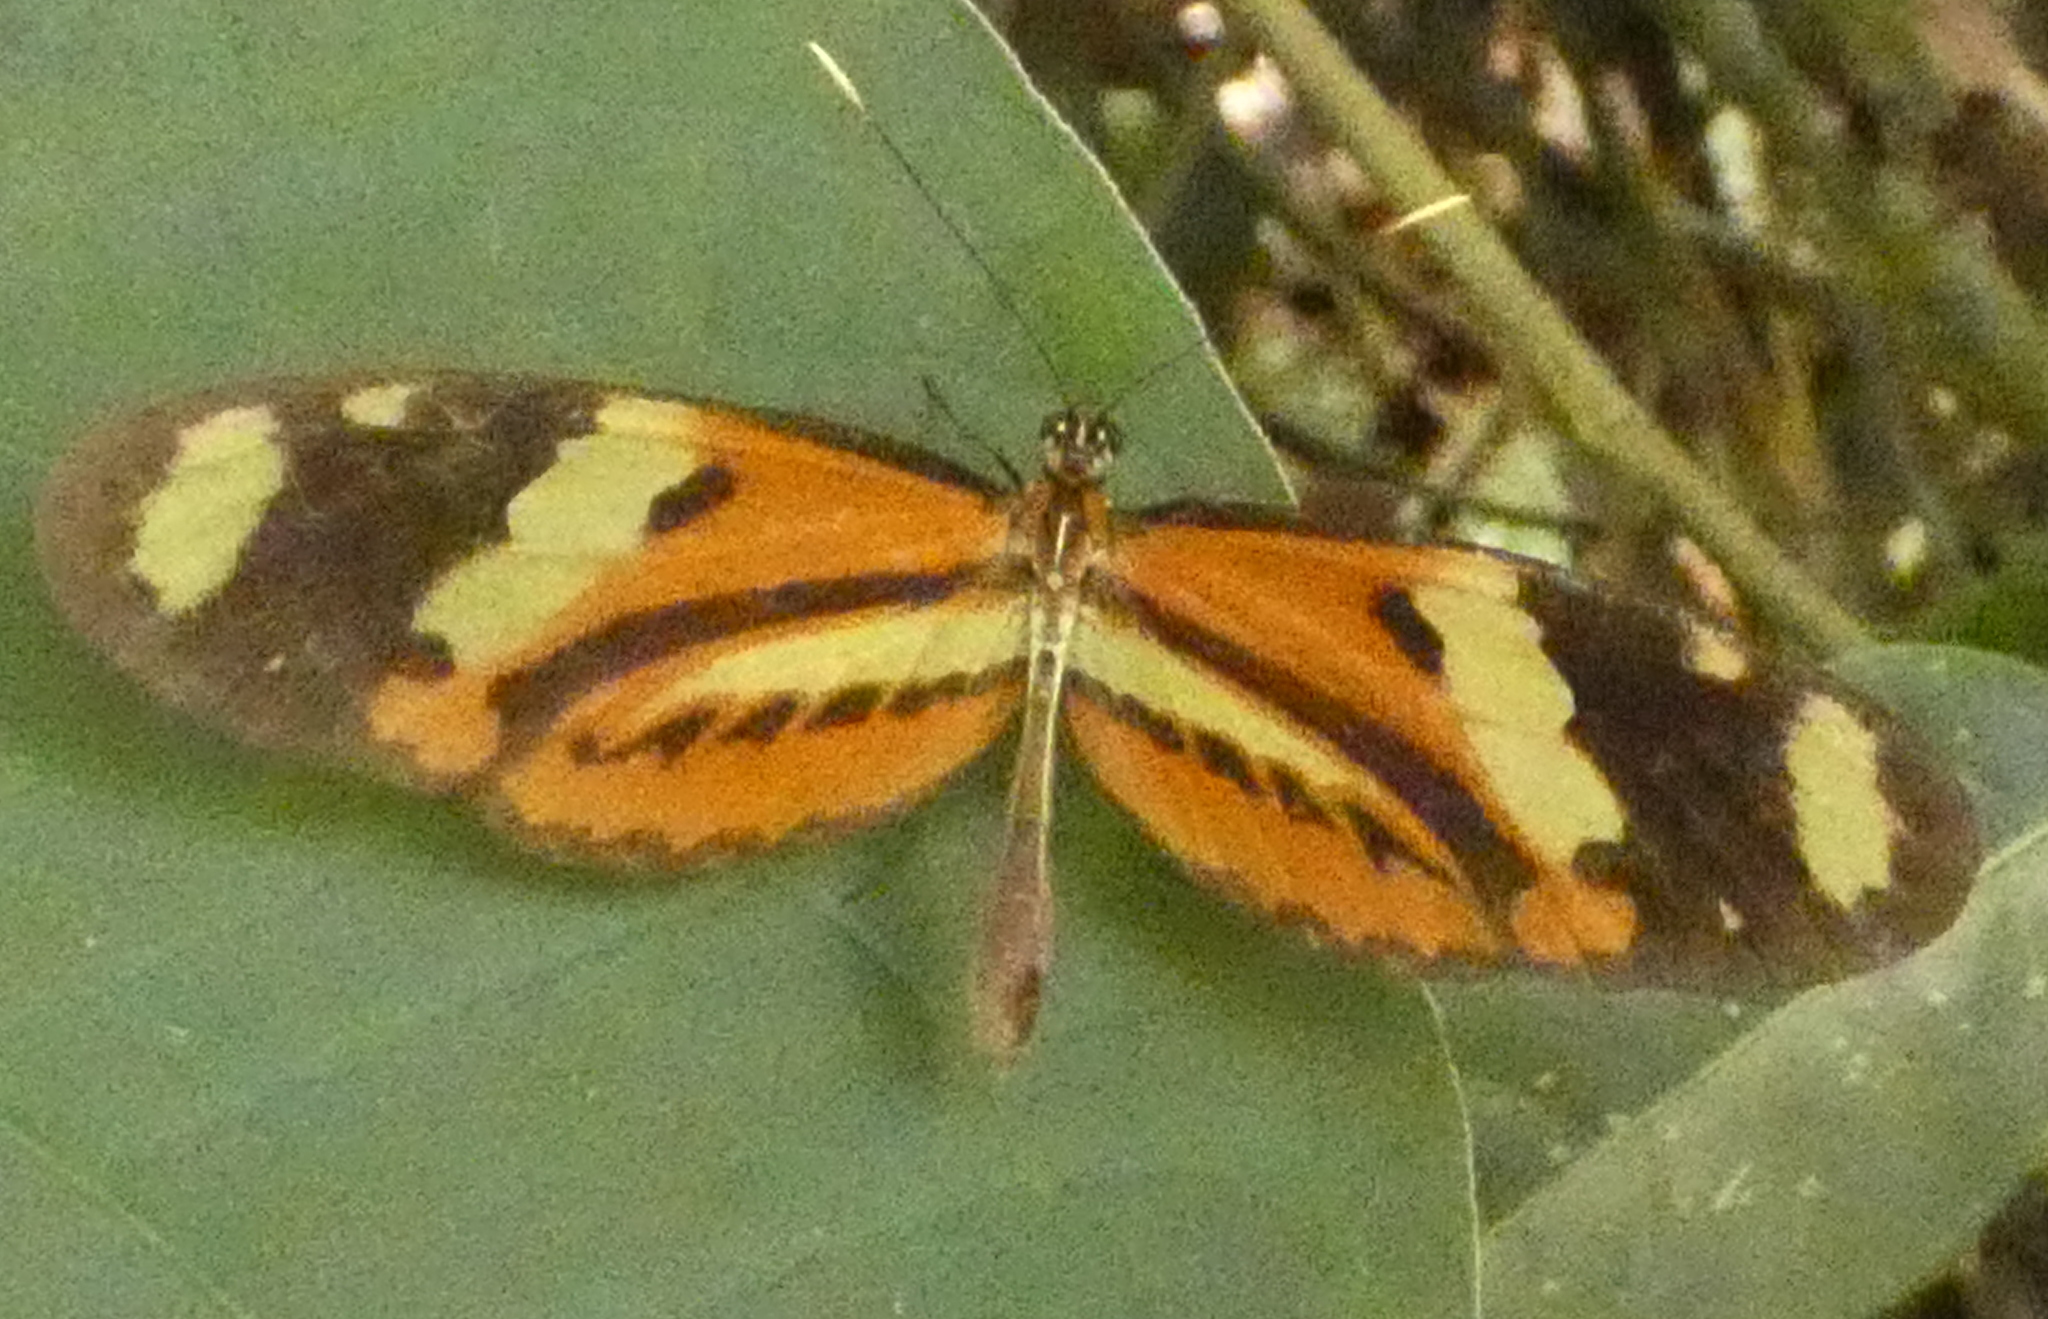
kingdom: Animalia
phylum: Arthropoda
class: Insecta
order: Lepidoptera
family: Nymphalidae
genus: Mechanitis
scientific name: Mechanitis lysimnia
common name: Lysimnia tigerwing
